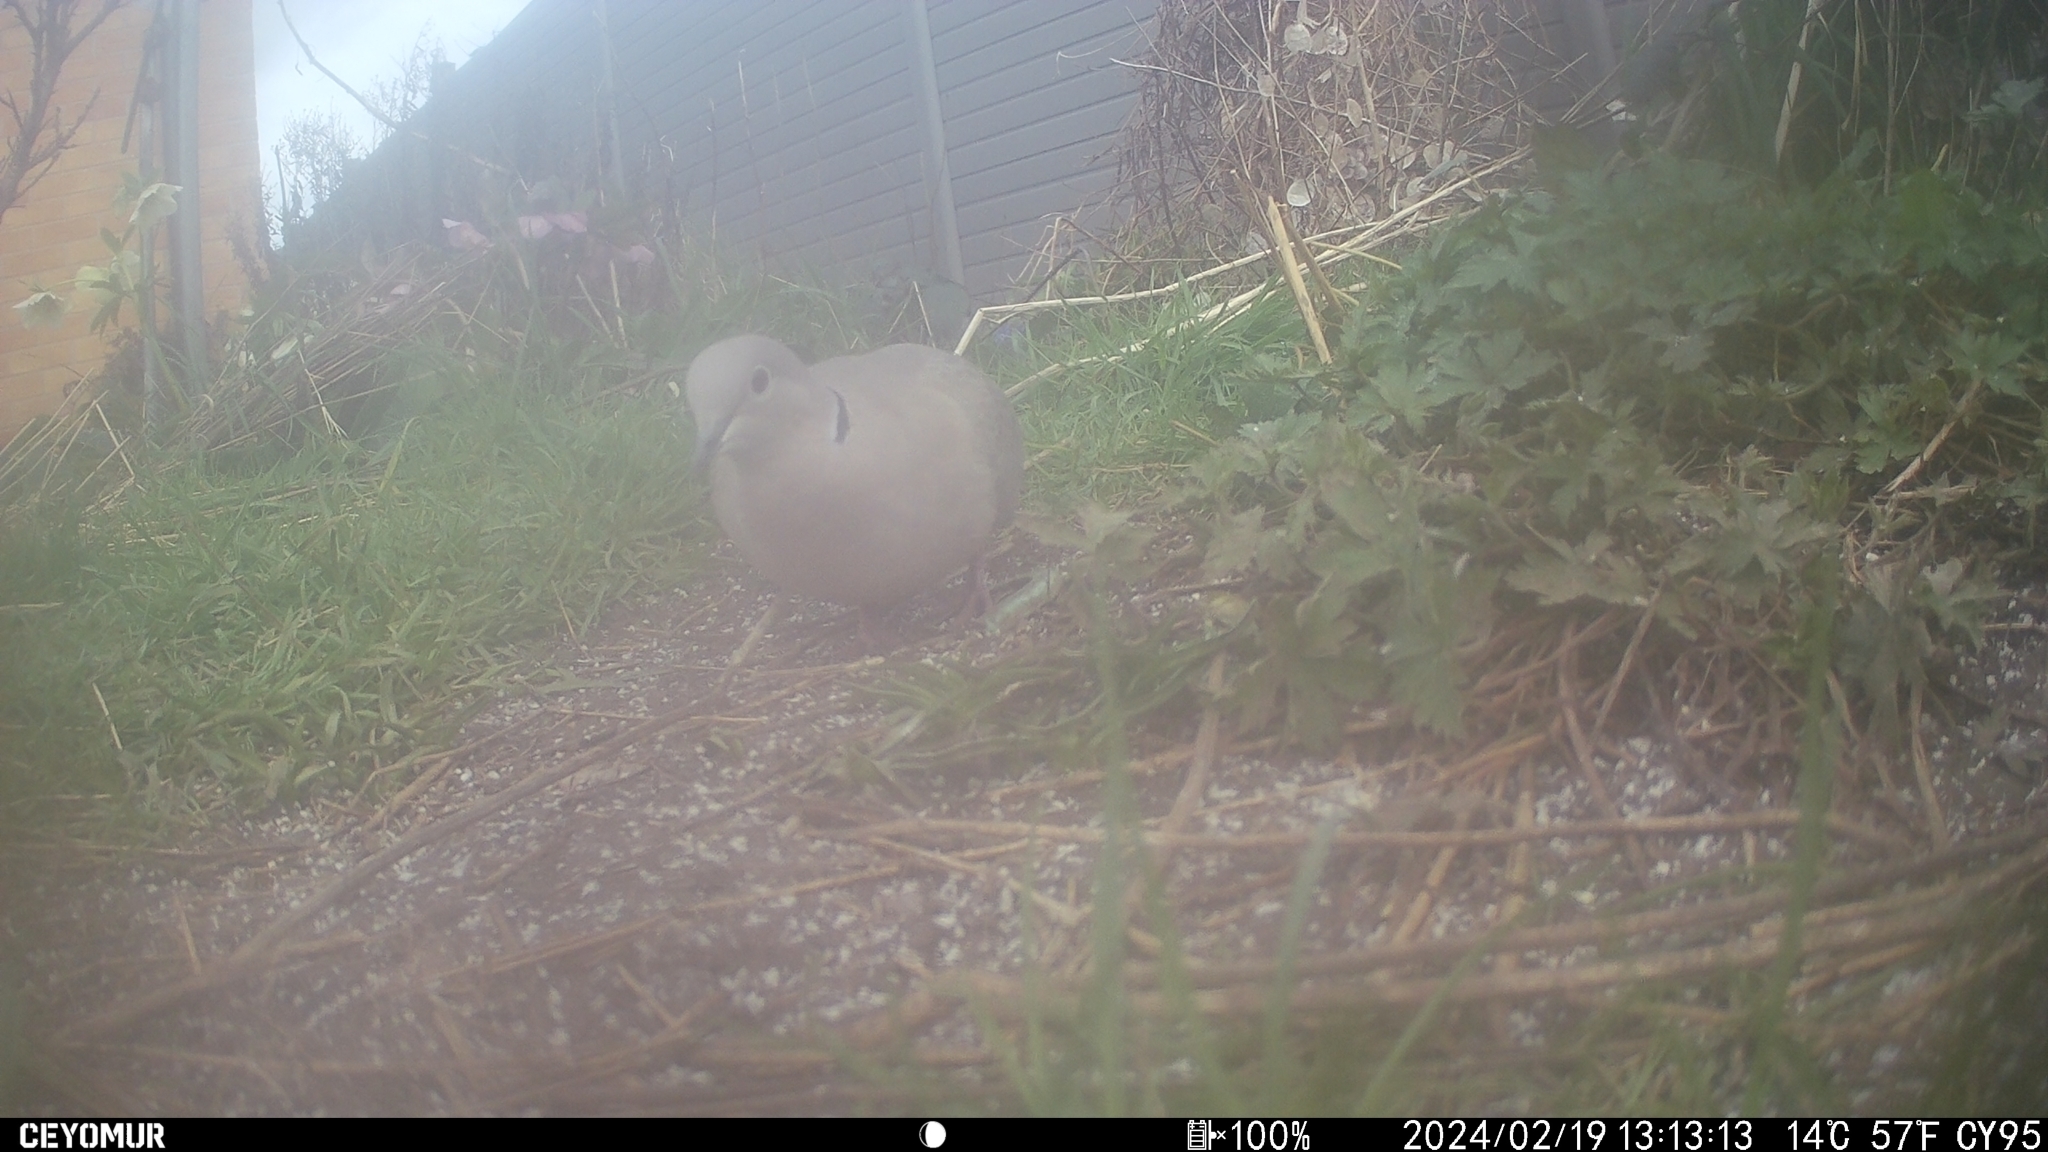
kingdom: Animalia
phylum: Chordata
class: Aves
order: Columbiformes
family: Columbidae
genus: Streptopelia
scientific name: Streptopelia decaocto
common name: Eurasian collared dove
